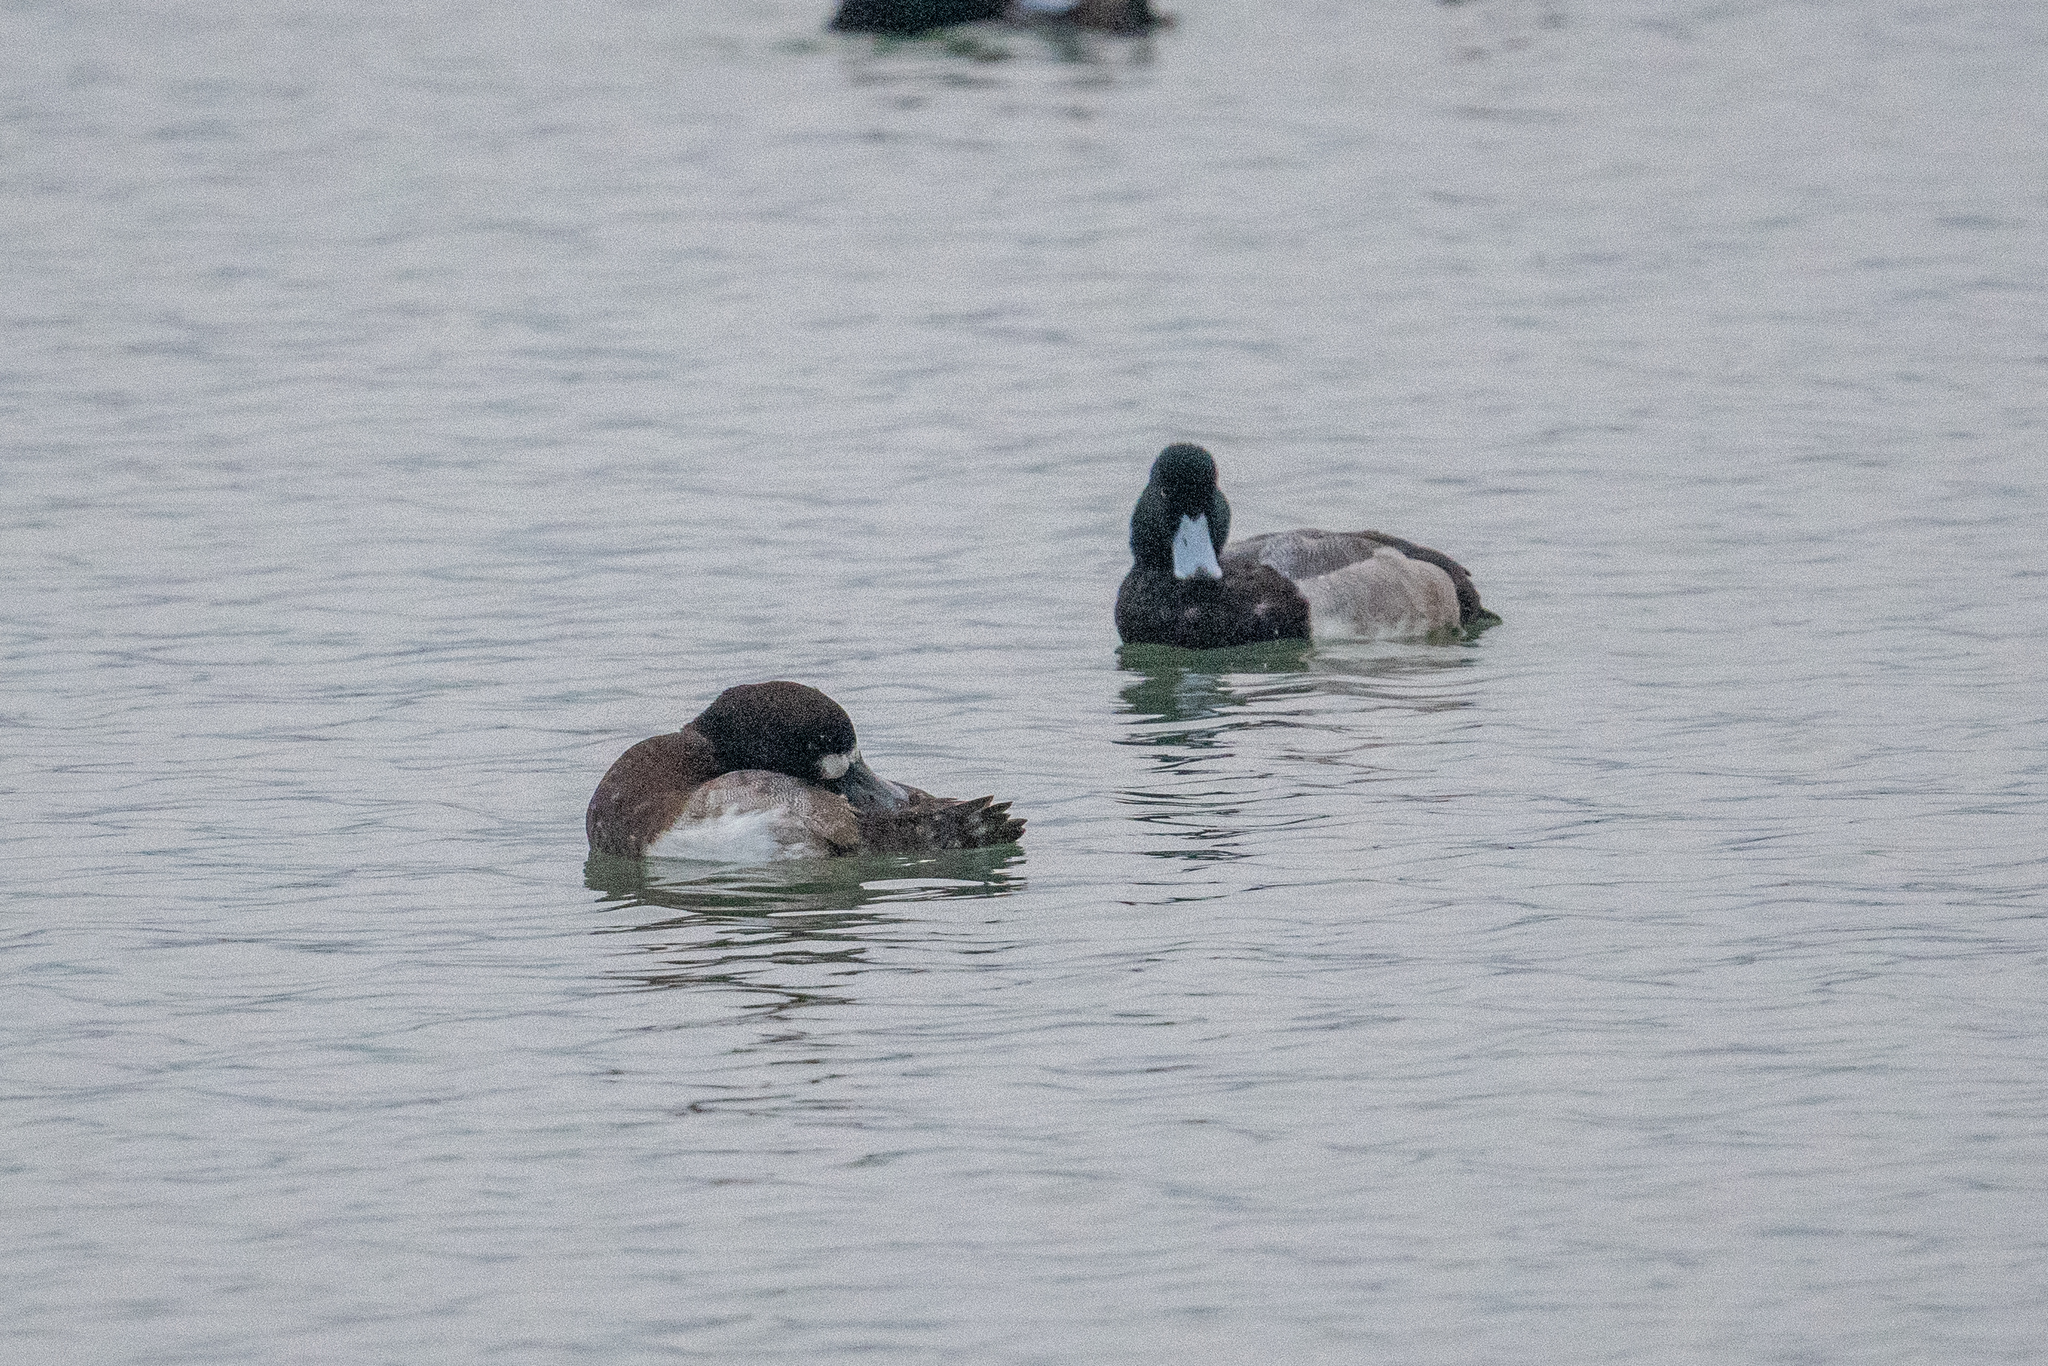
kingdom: Animalia
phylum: Chordata
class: Aves
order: Anseriformes
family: Anatidae
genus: Aythya
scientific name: Aythya marila
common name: Greater scaup
